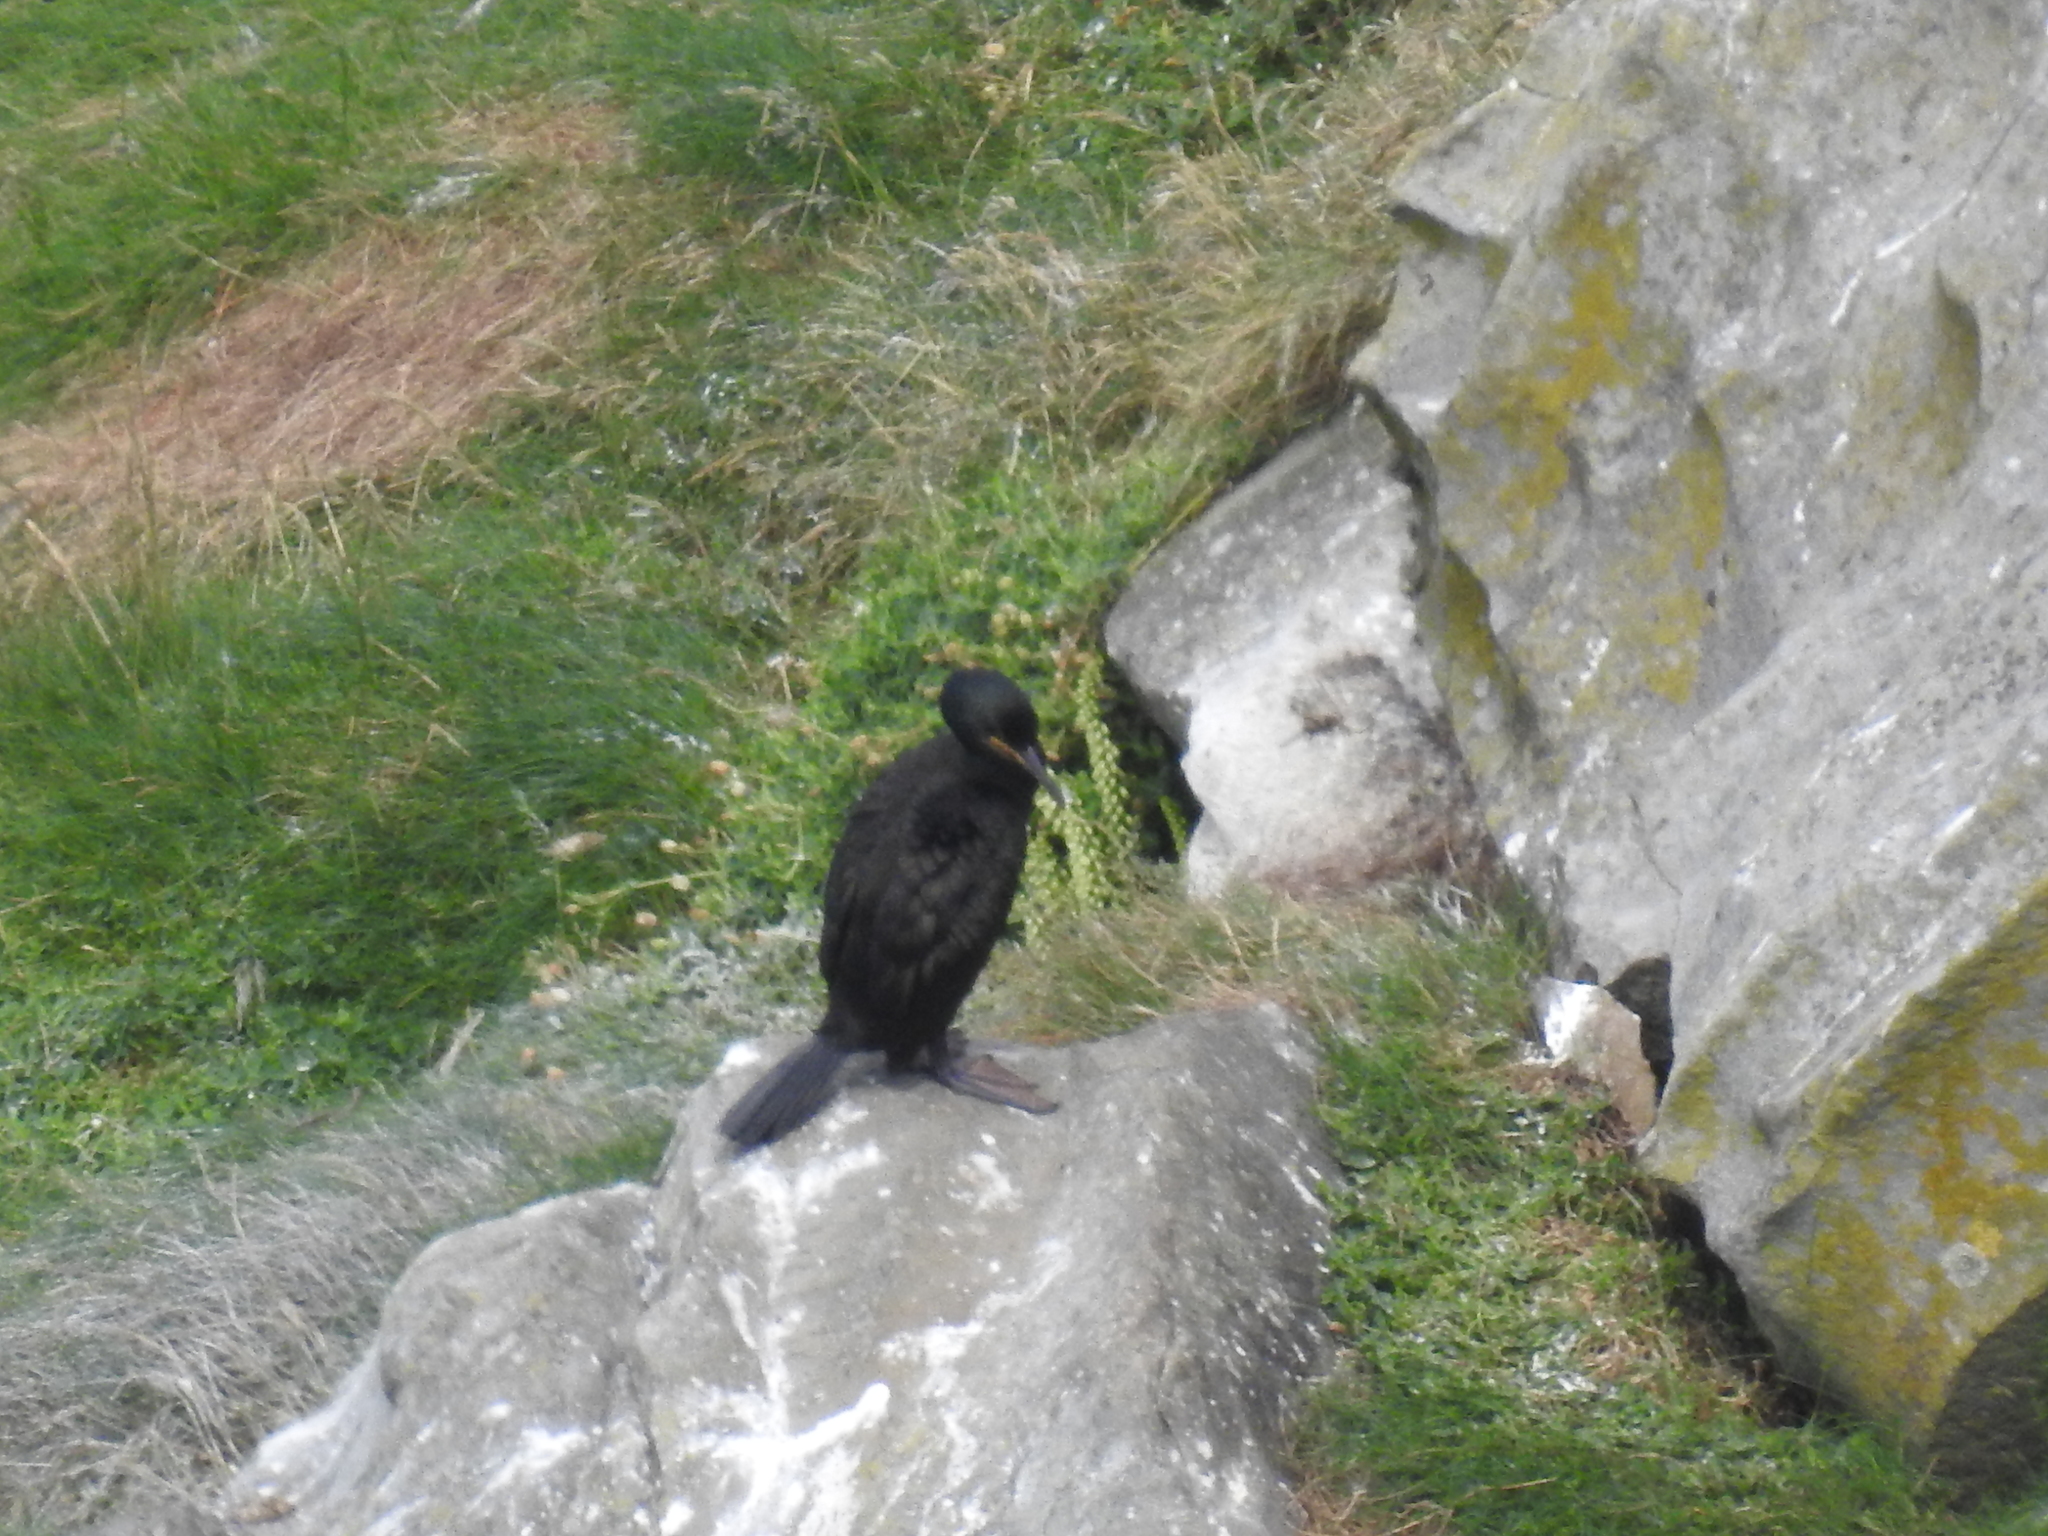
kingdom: Animalia
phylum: Chordata
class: Aves
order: Suliformes
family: Phalacrocoracidae
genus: Phalacrocorax
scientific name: Phalacrocorax aristotelis
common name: European shag
